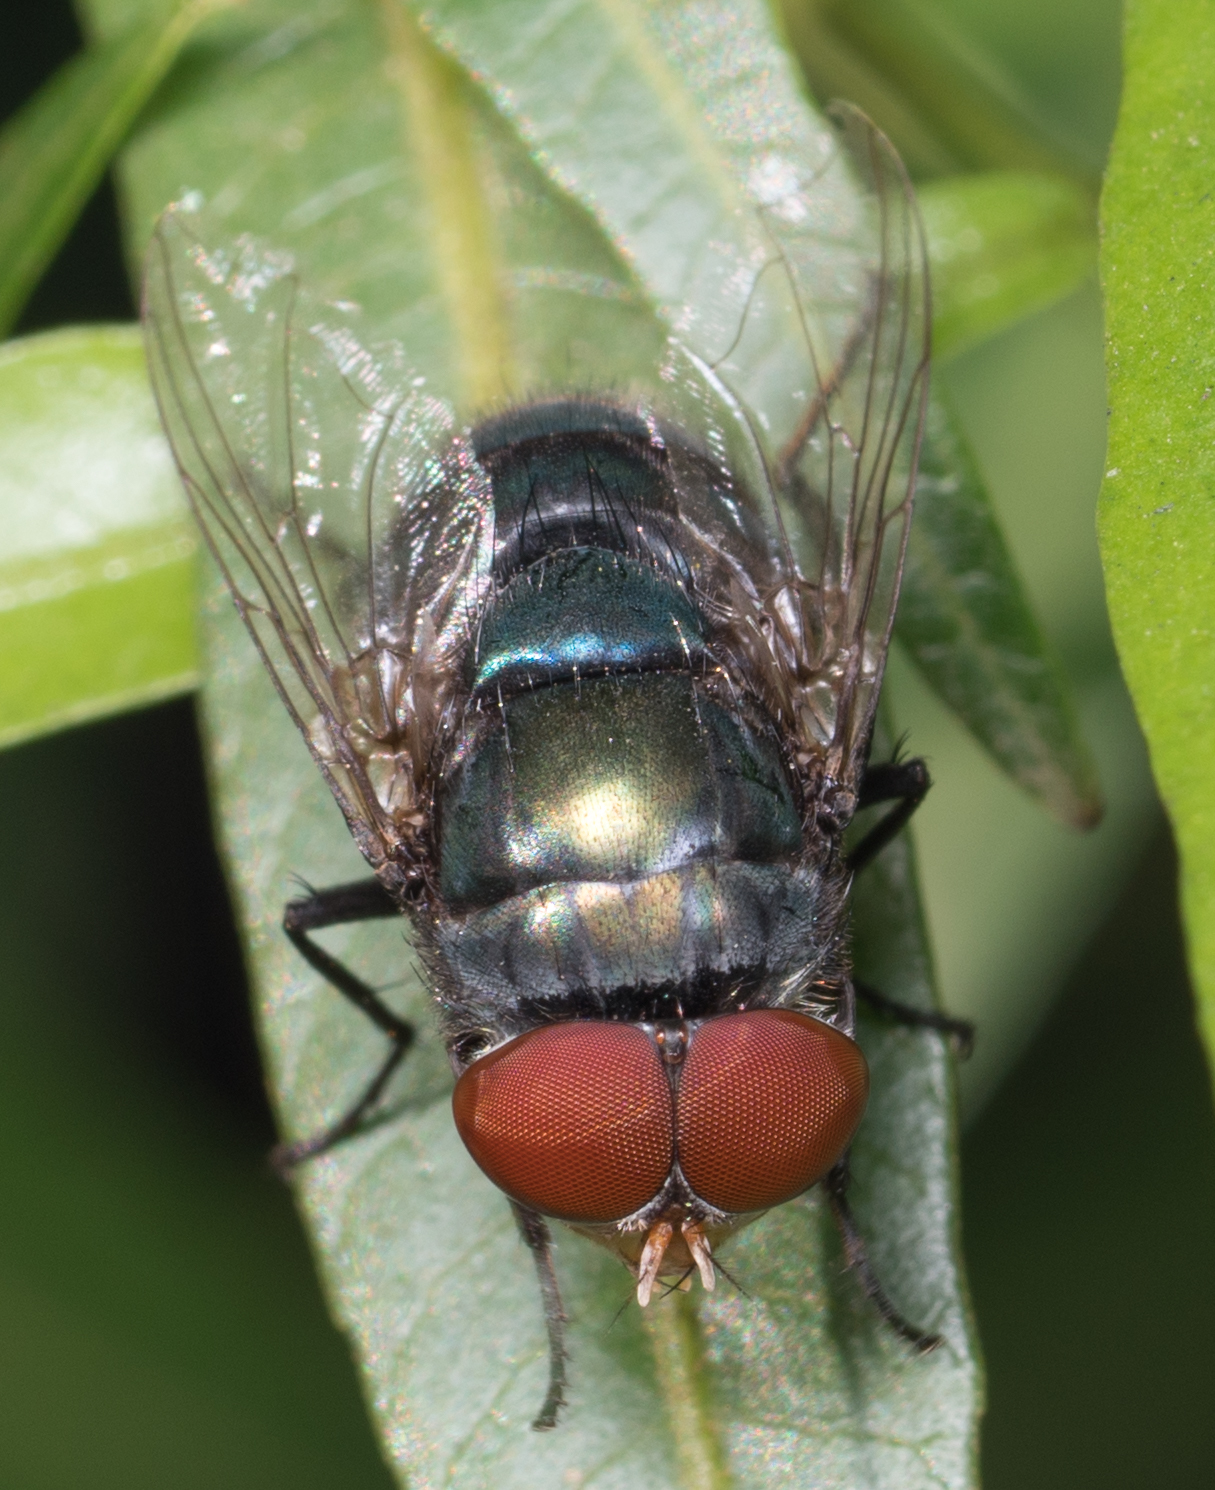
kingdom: Animalia
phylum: Arthropoda
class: Insecta
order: Diptera
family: Calliphoridae
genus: Chrysomya
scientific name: Chrysomya megacephala
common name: Blow fly
